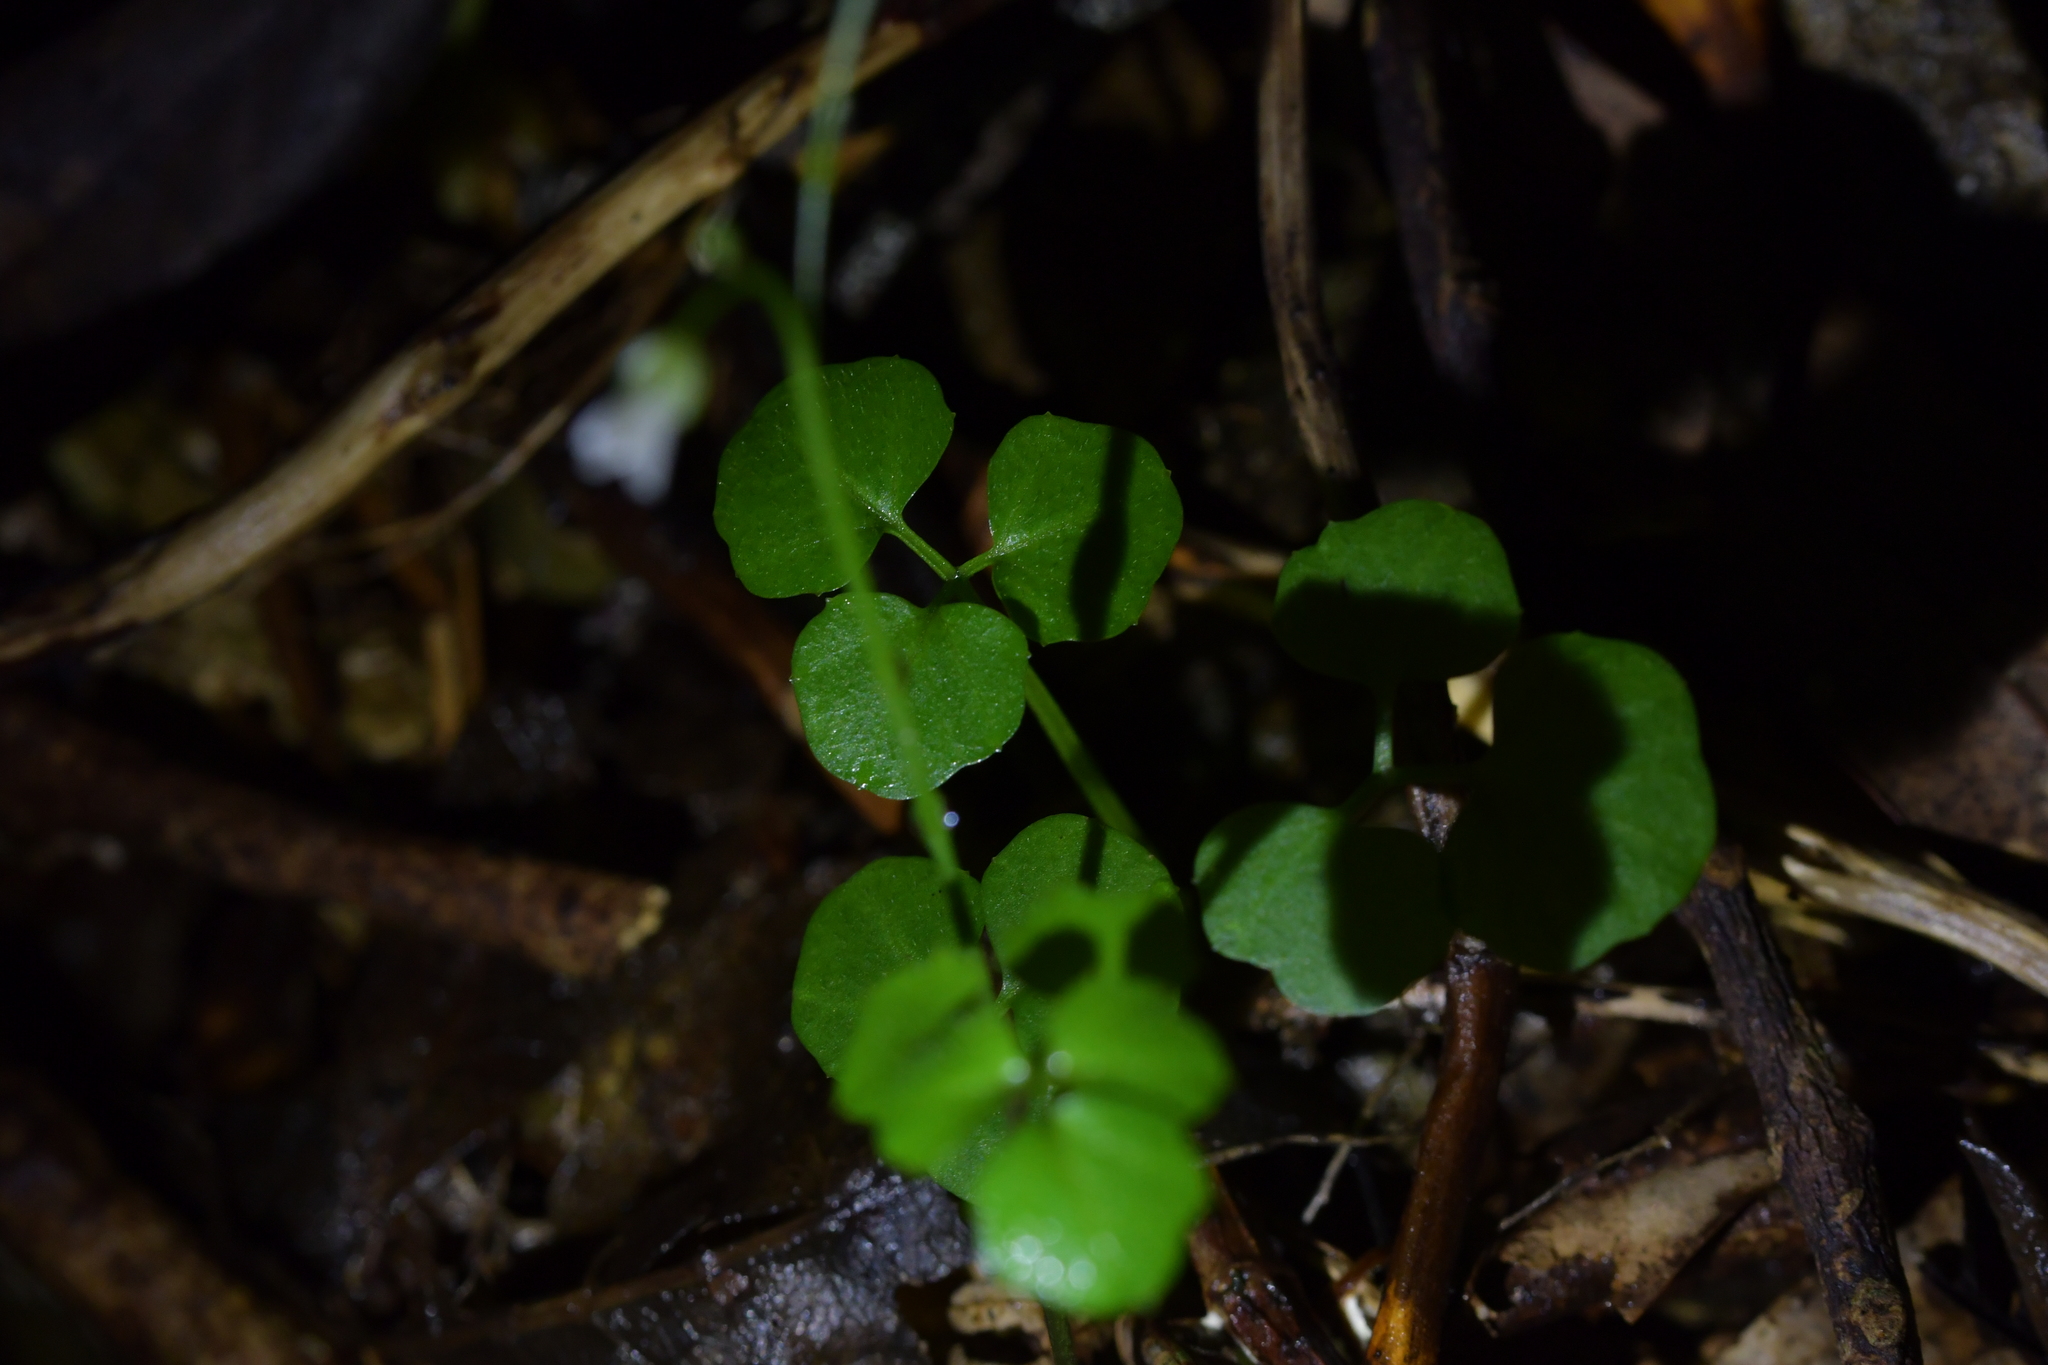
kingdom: Plantae
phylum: Tracheophyta
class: Magnoliopsida
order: Brassicales
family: Brassicaceae
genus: Cardamine
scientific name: Cardamine dolichostyla
